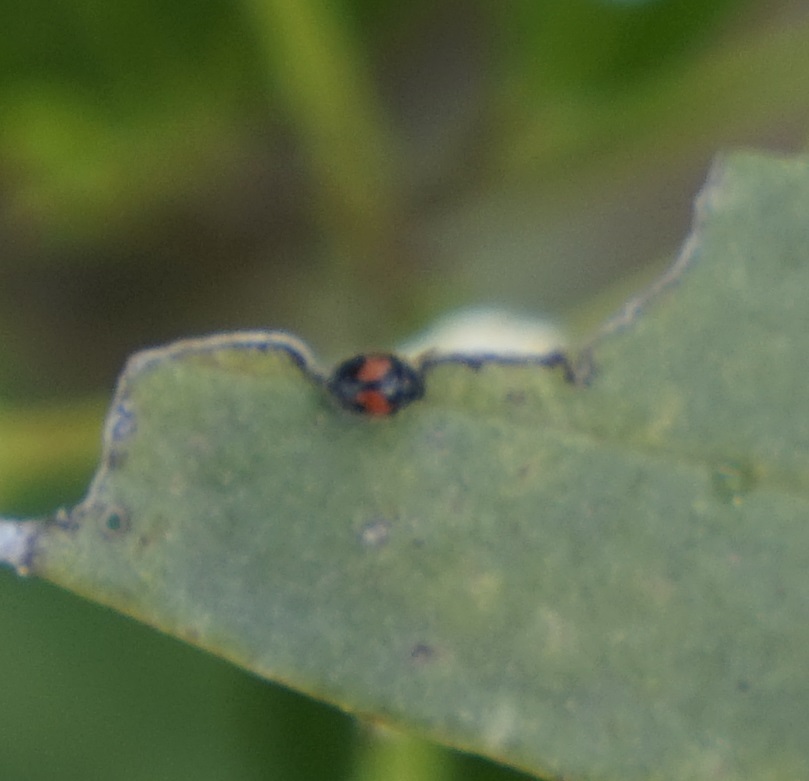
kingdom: Animalia
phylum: Arthropoda
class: Insecta
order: Coleoptera
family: Coccinellidae
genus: Scymnus
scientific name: Scymnus notescens
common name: Minute two-spotted ladybird beetle
